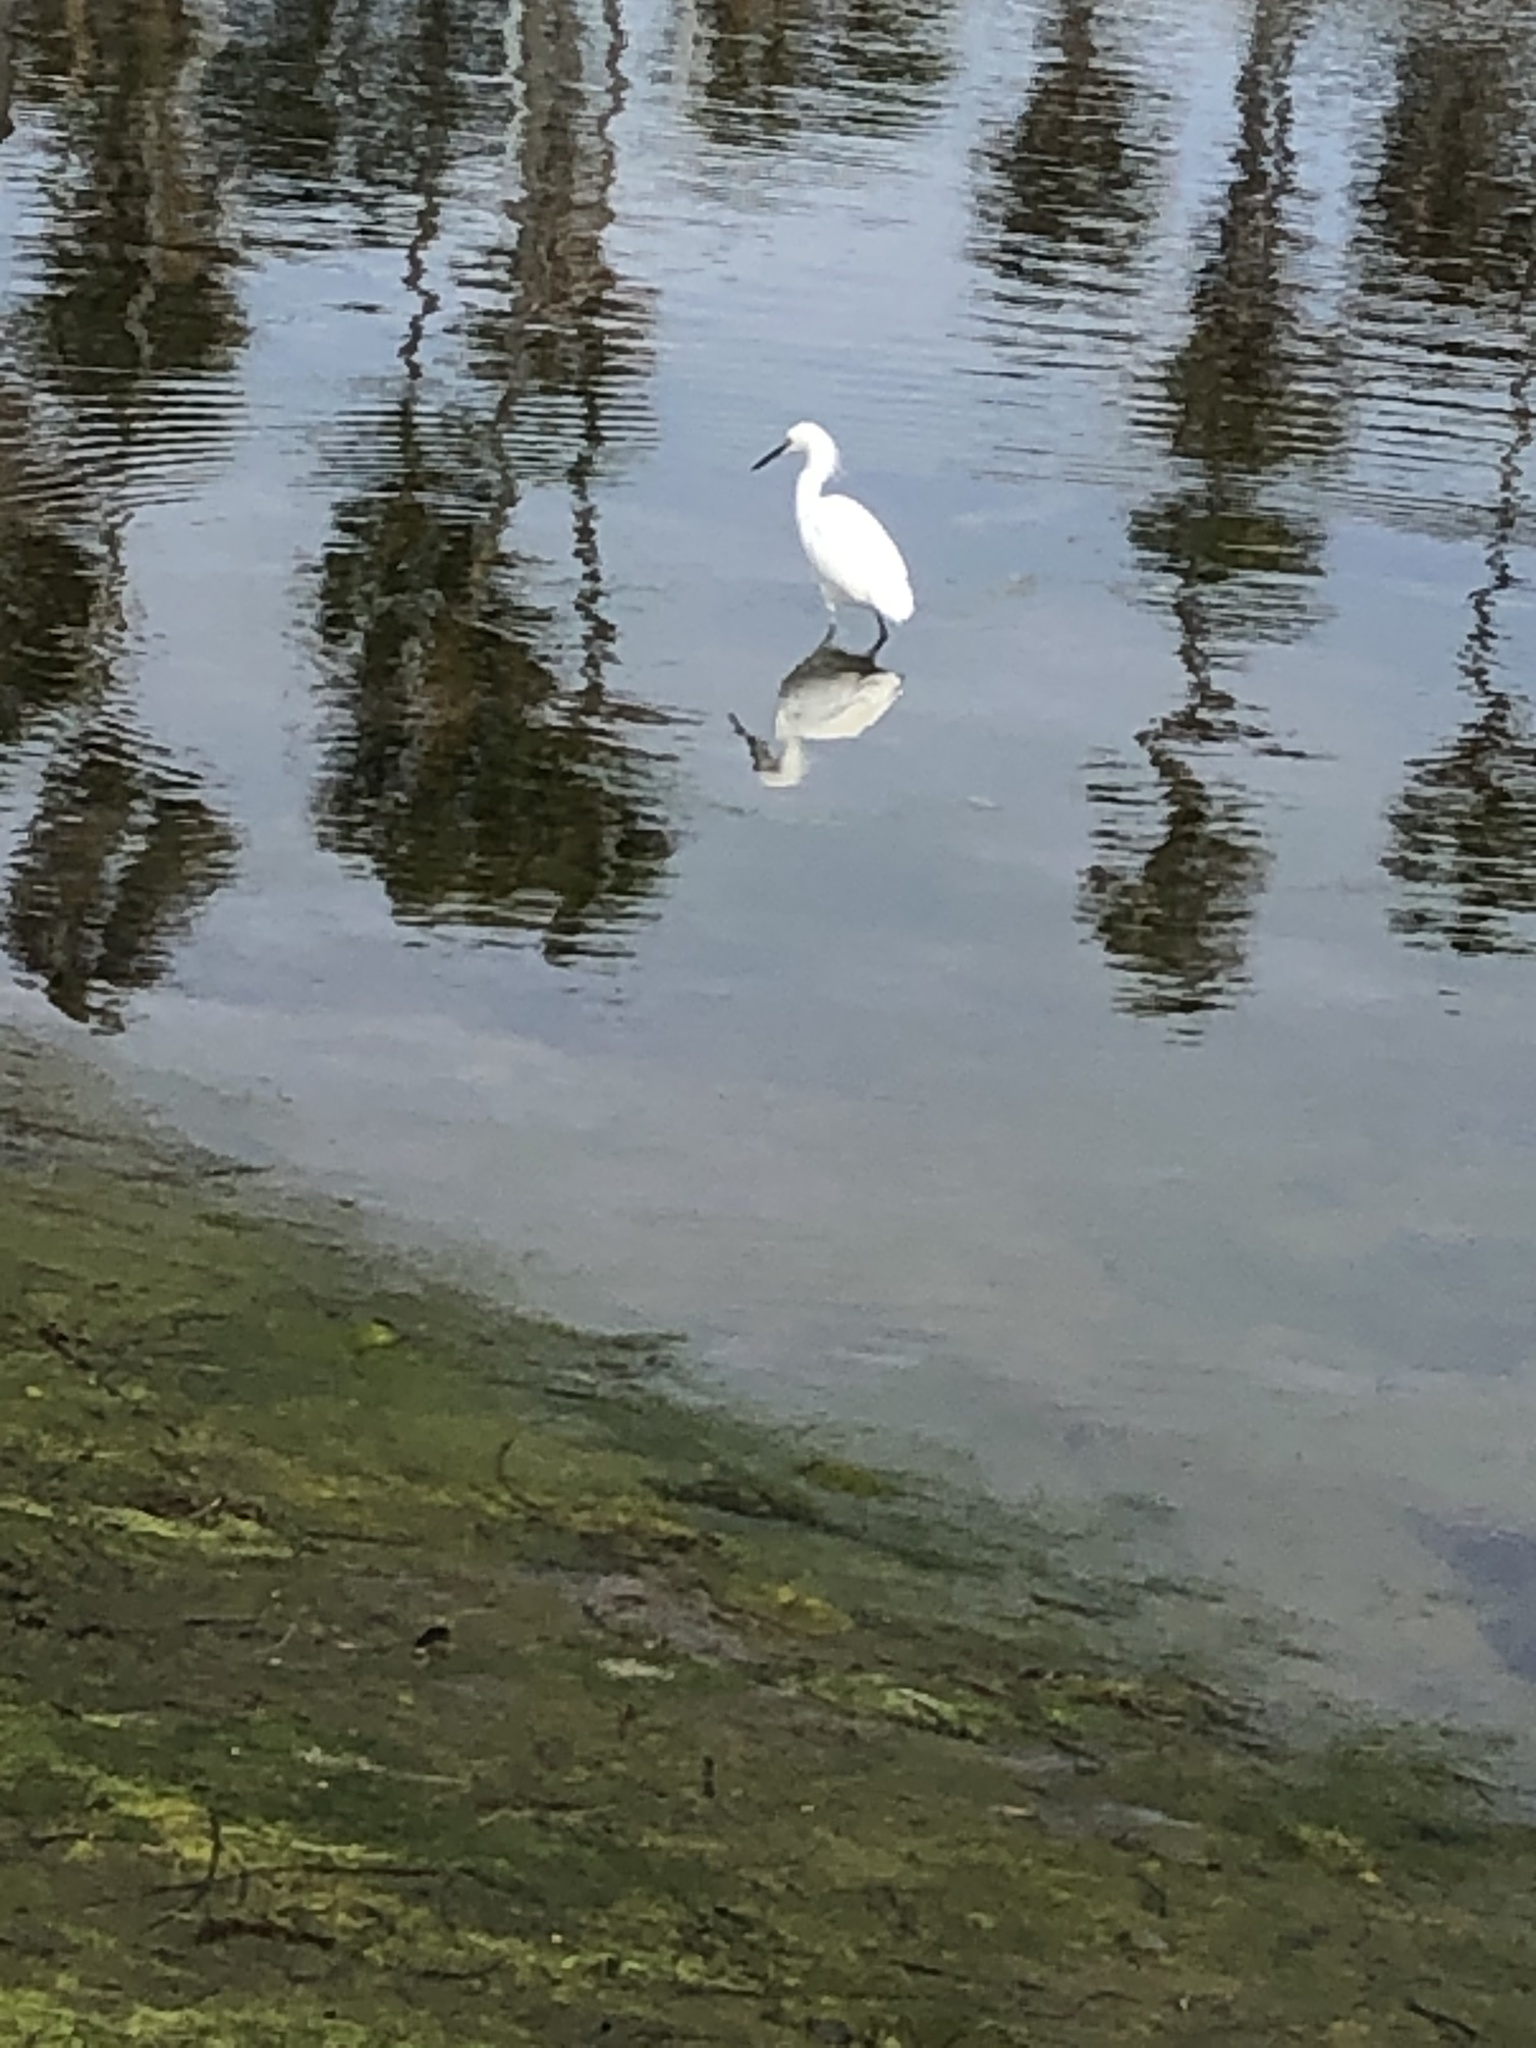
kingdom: Animalia
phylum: Chordata
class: Aves
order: Pelecaniformes
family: Ardeidae
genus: Egretta
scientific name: Egretta thula
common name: Snowy egret
